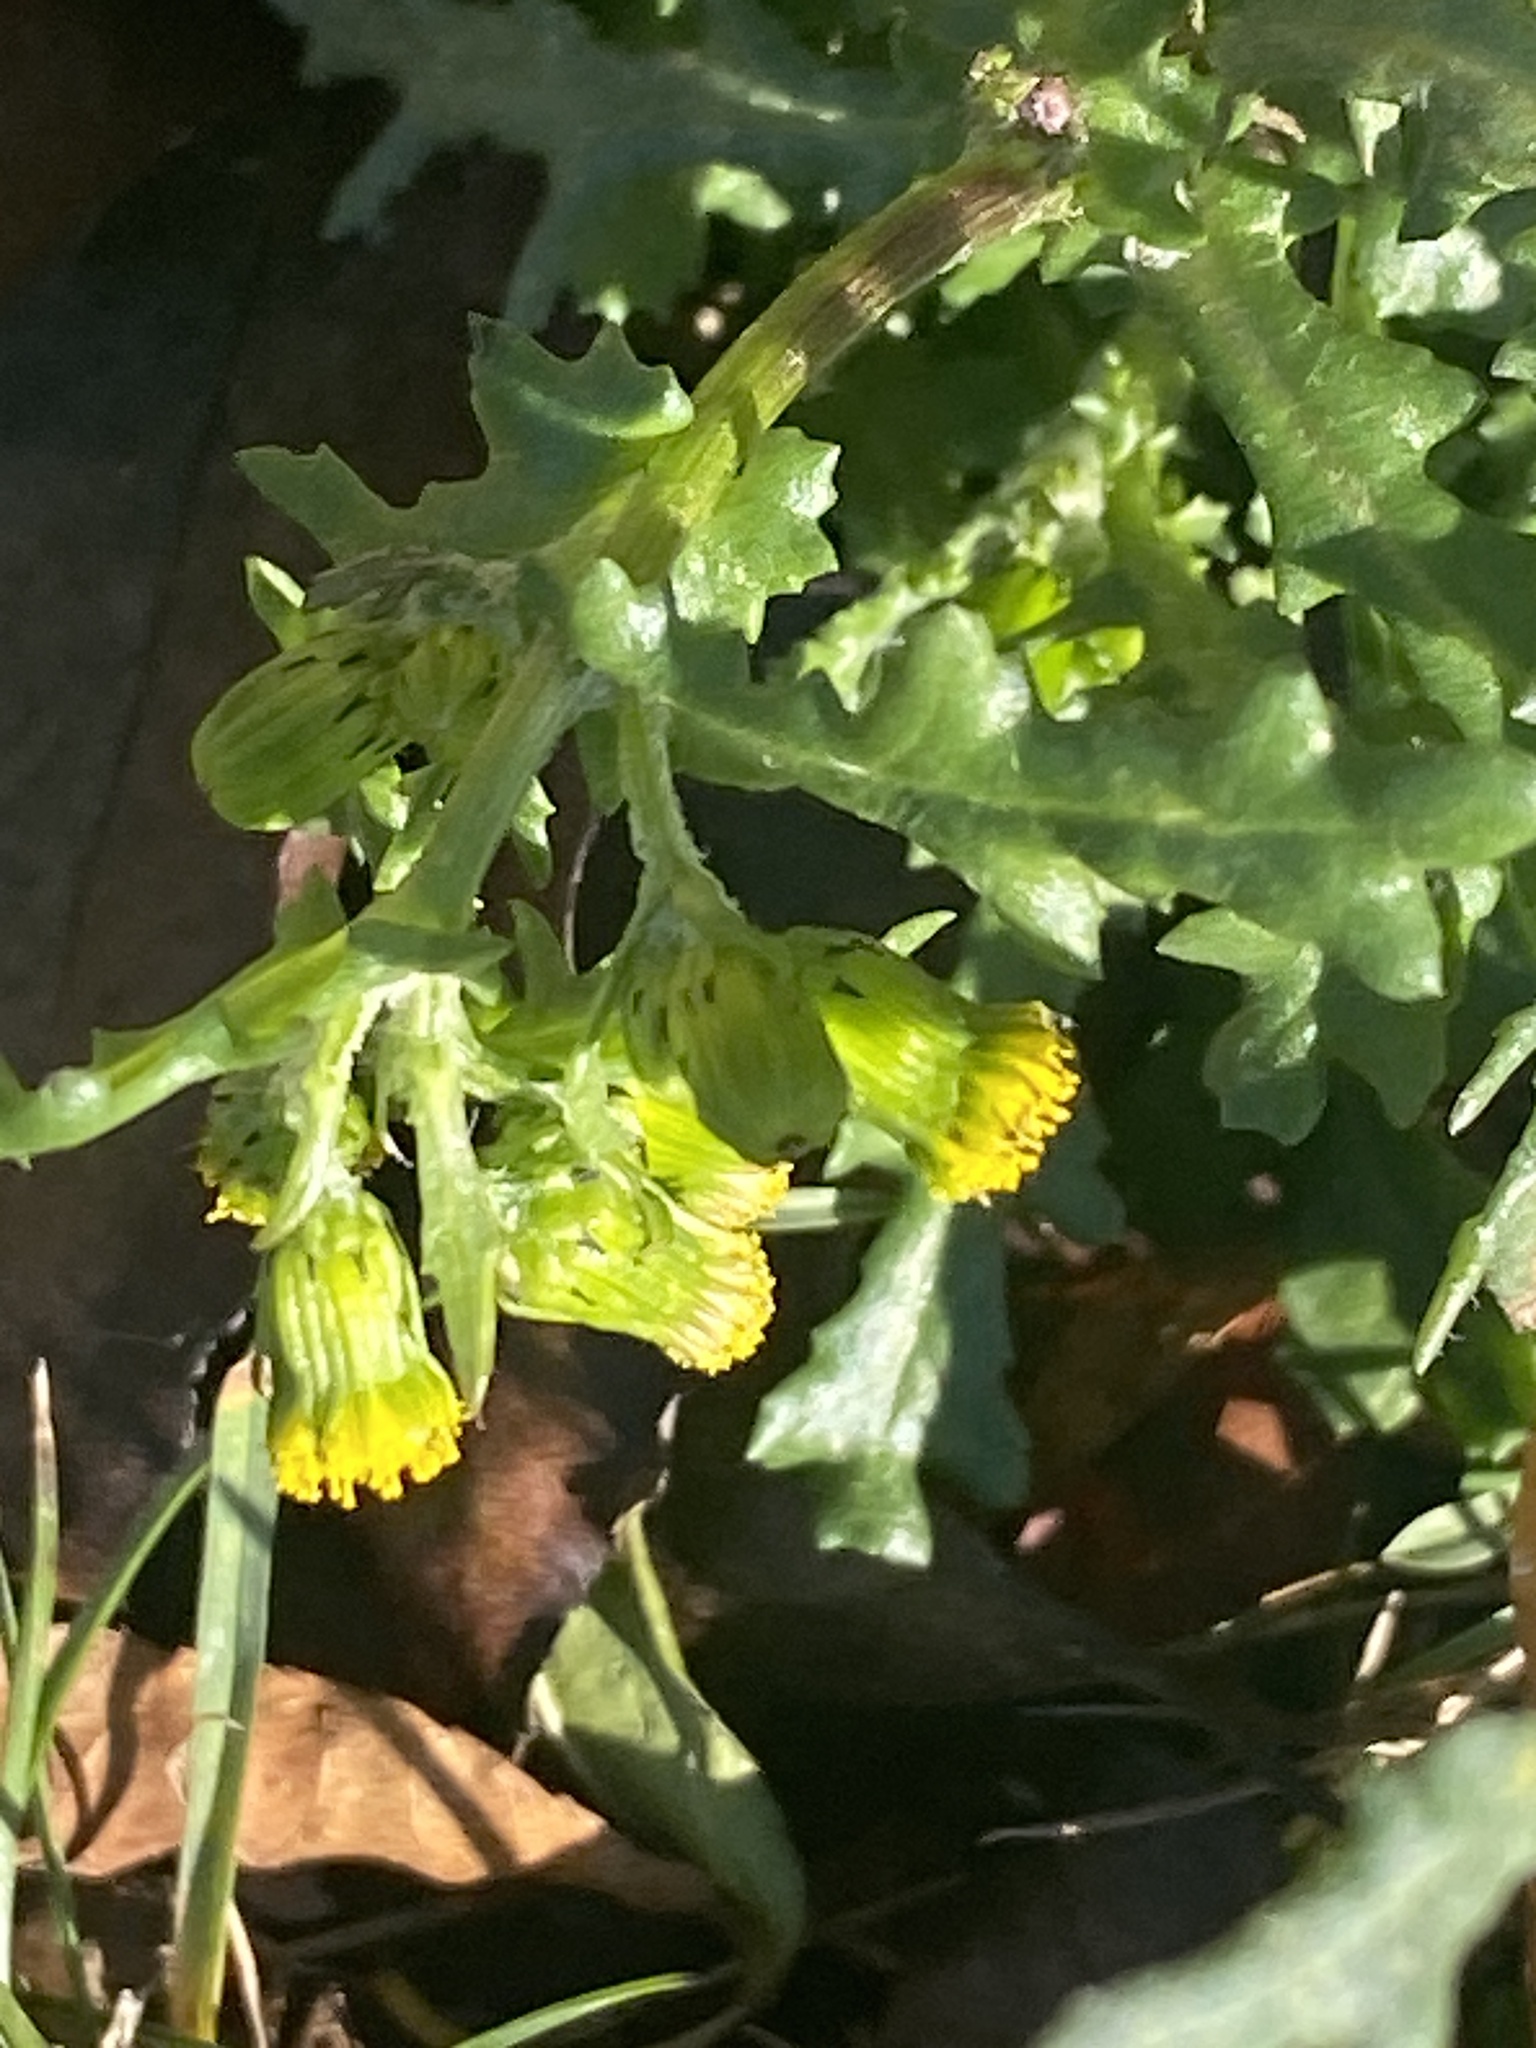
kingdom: Plantae
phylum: Tracheophyta
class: Magnoliopsida
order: Asterales
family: Asteraceae
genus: Senecio
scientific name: Senecio vulgaris
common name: Old-man-in-the-spring
